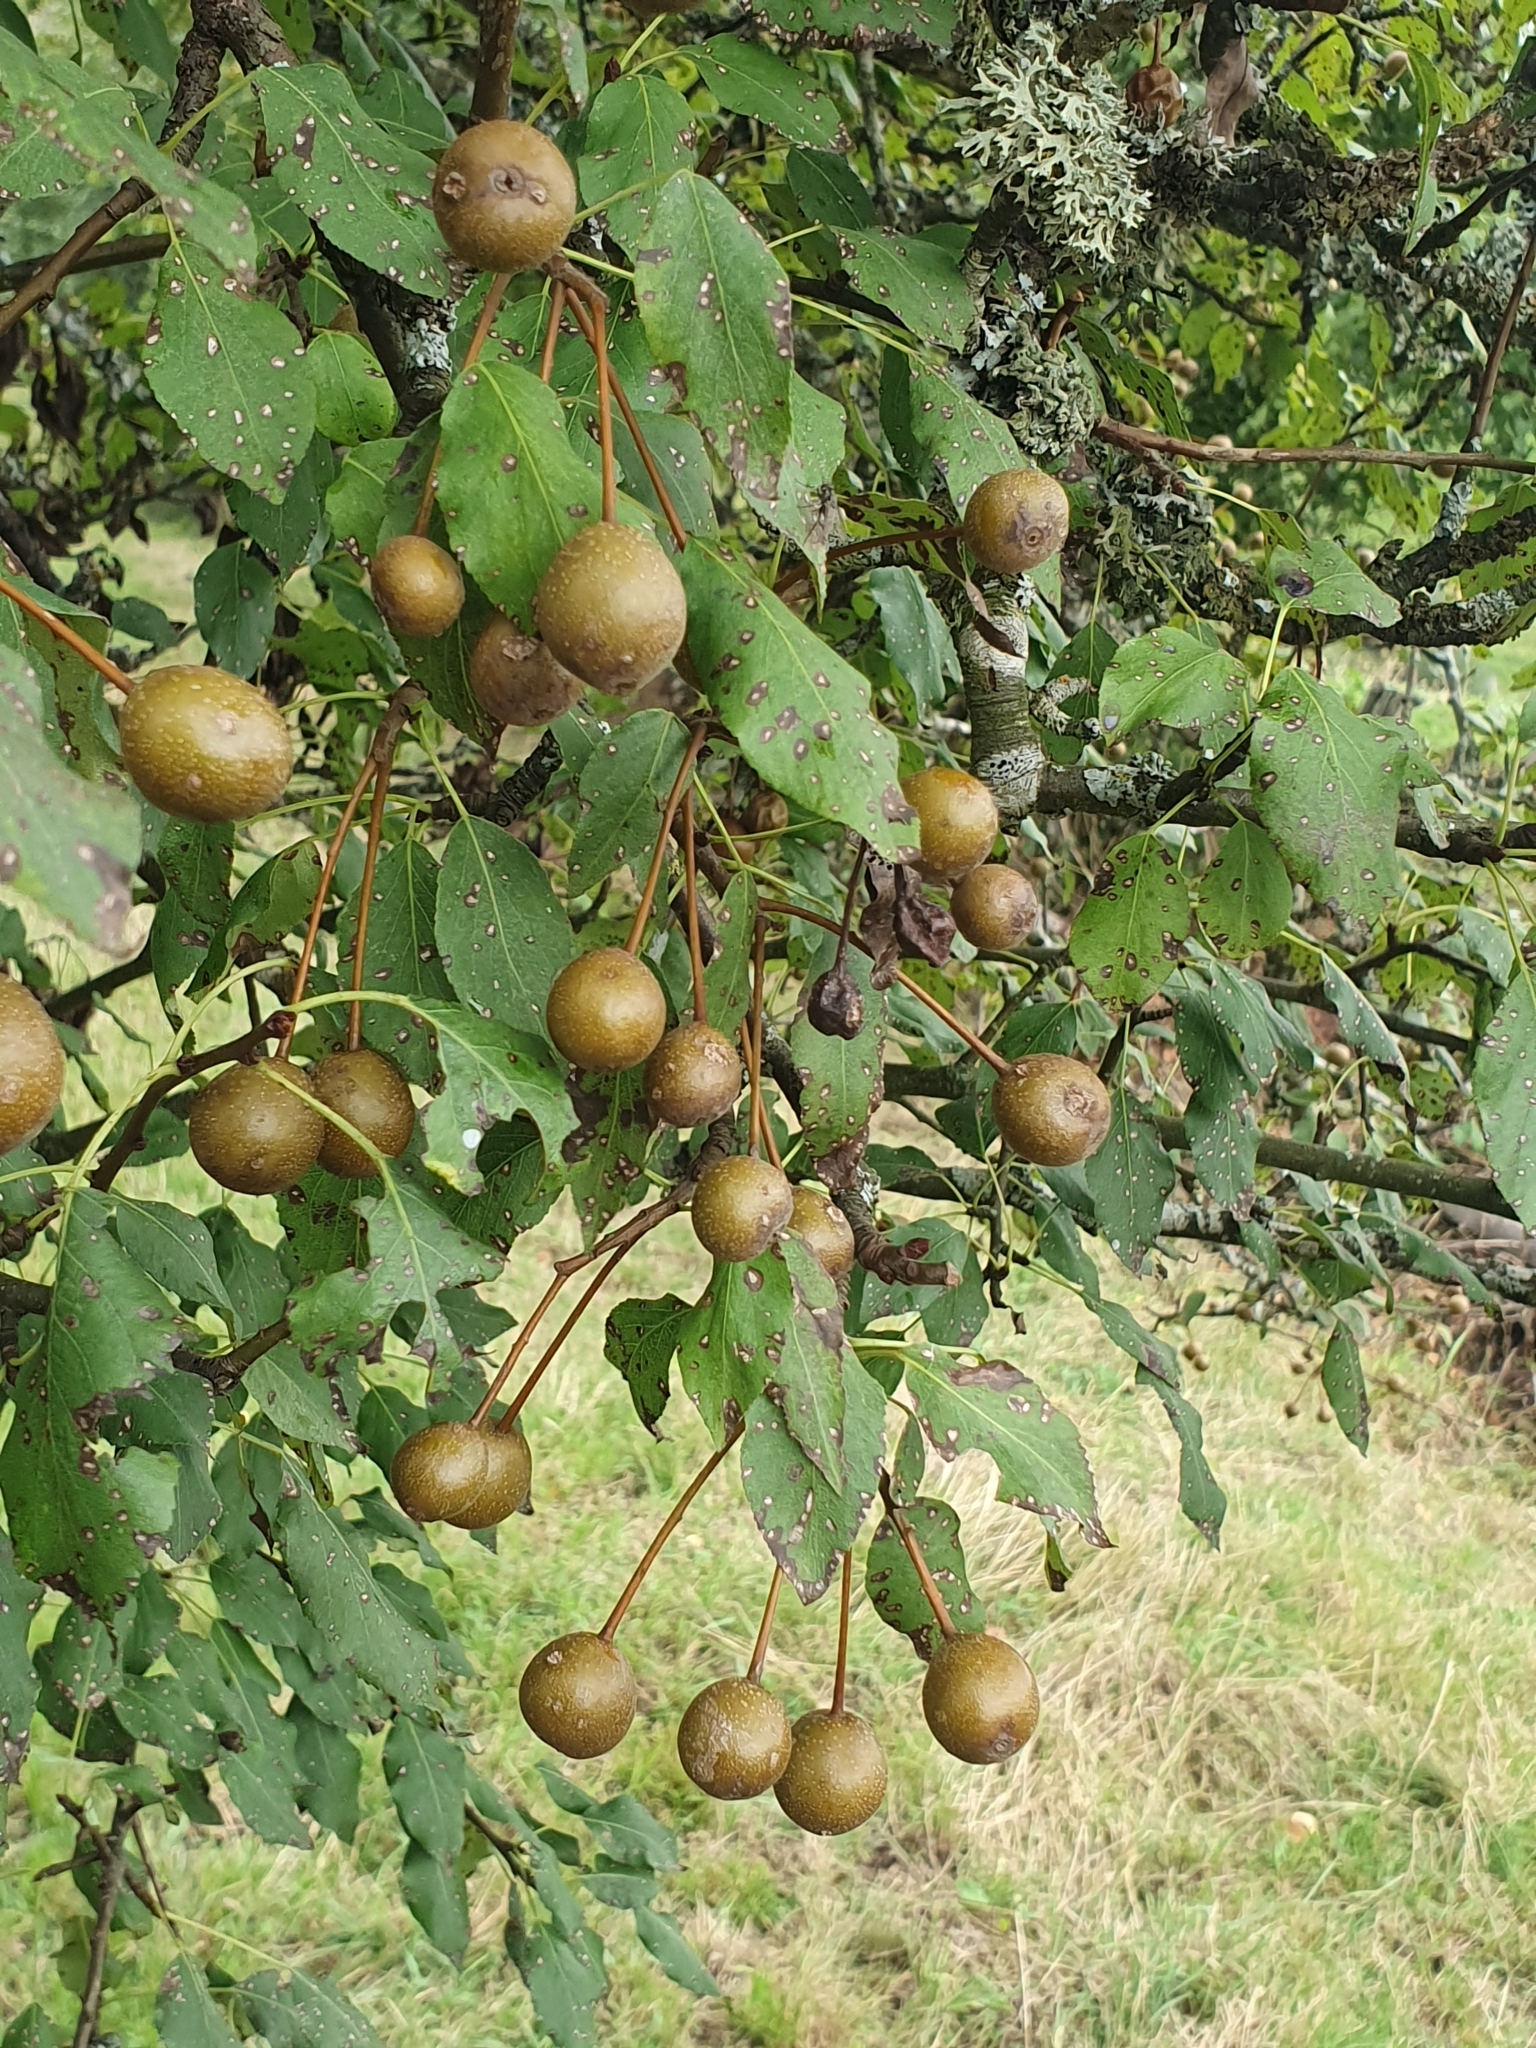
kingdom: Plantae
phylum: Tracheophyta
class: Magnoliopsida
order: Rosales
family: Rosaceae
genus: Pyrus
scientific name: Pyrus cordata
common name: Plymouth pear
